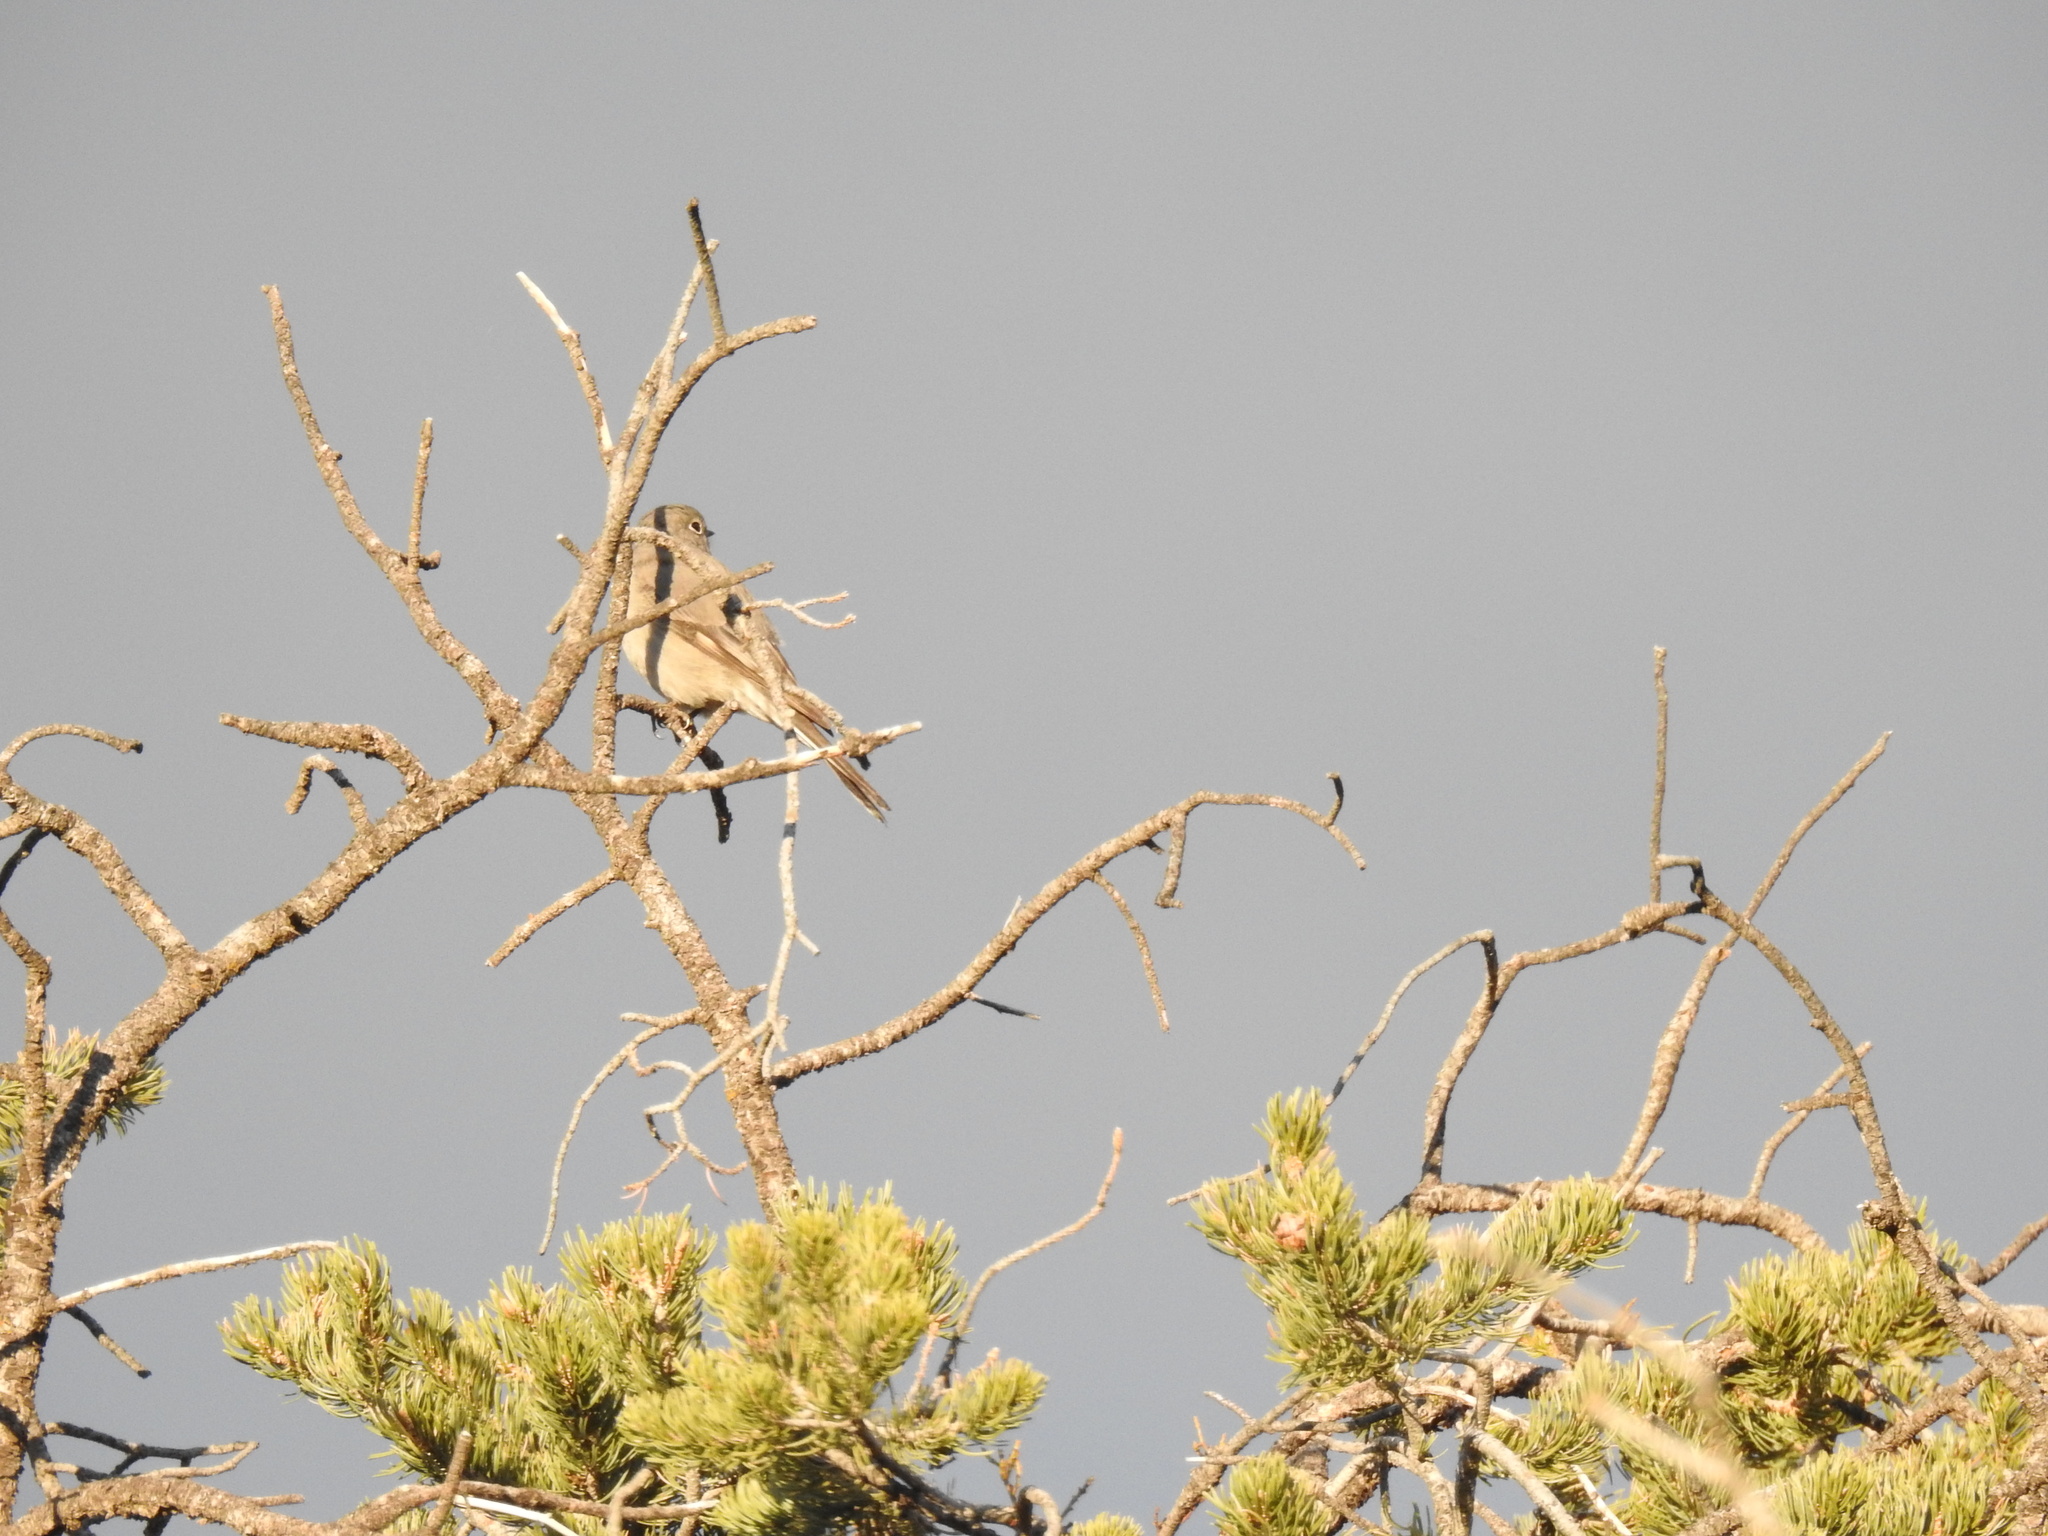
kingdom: Animalia
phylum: Chordata
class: Aves
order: Passeriformes
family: Turdidae
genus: Myadestes
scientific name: Myadestes townsendi
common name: Townsend's solitaire
